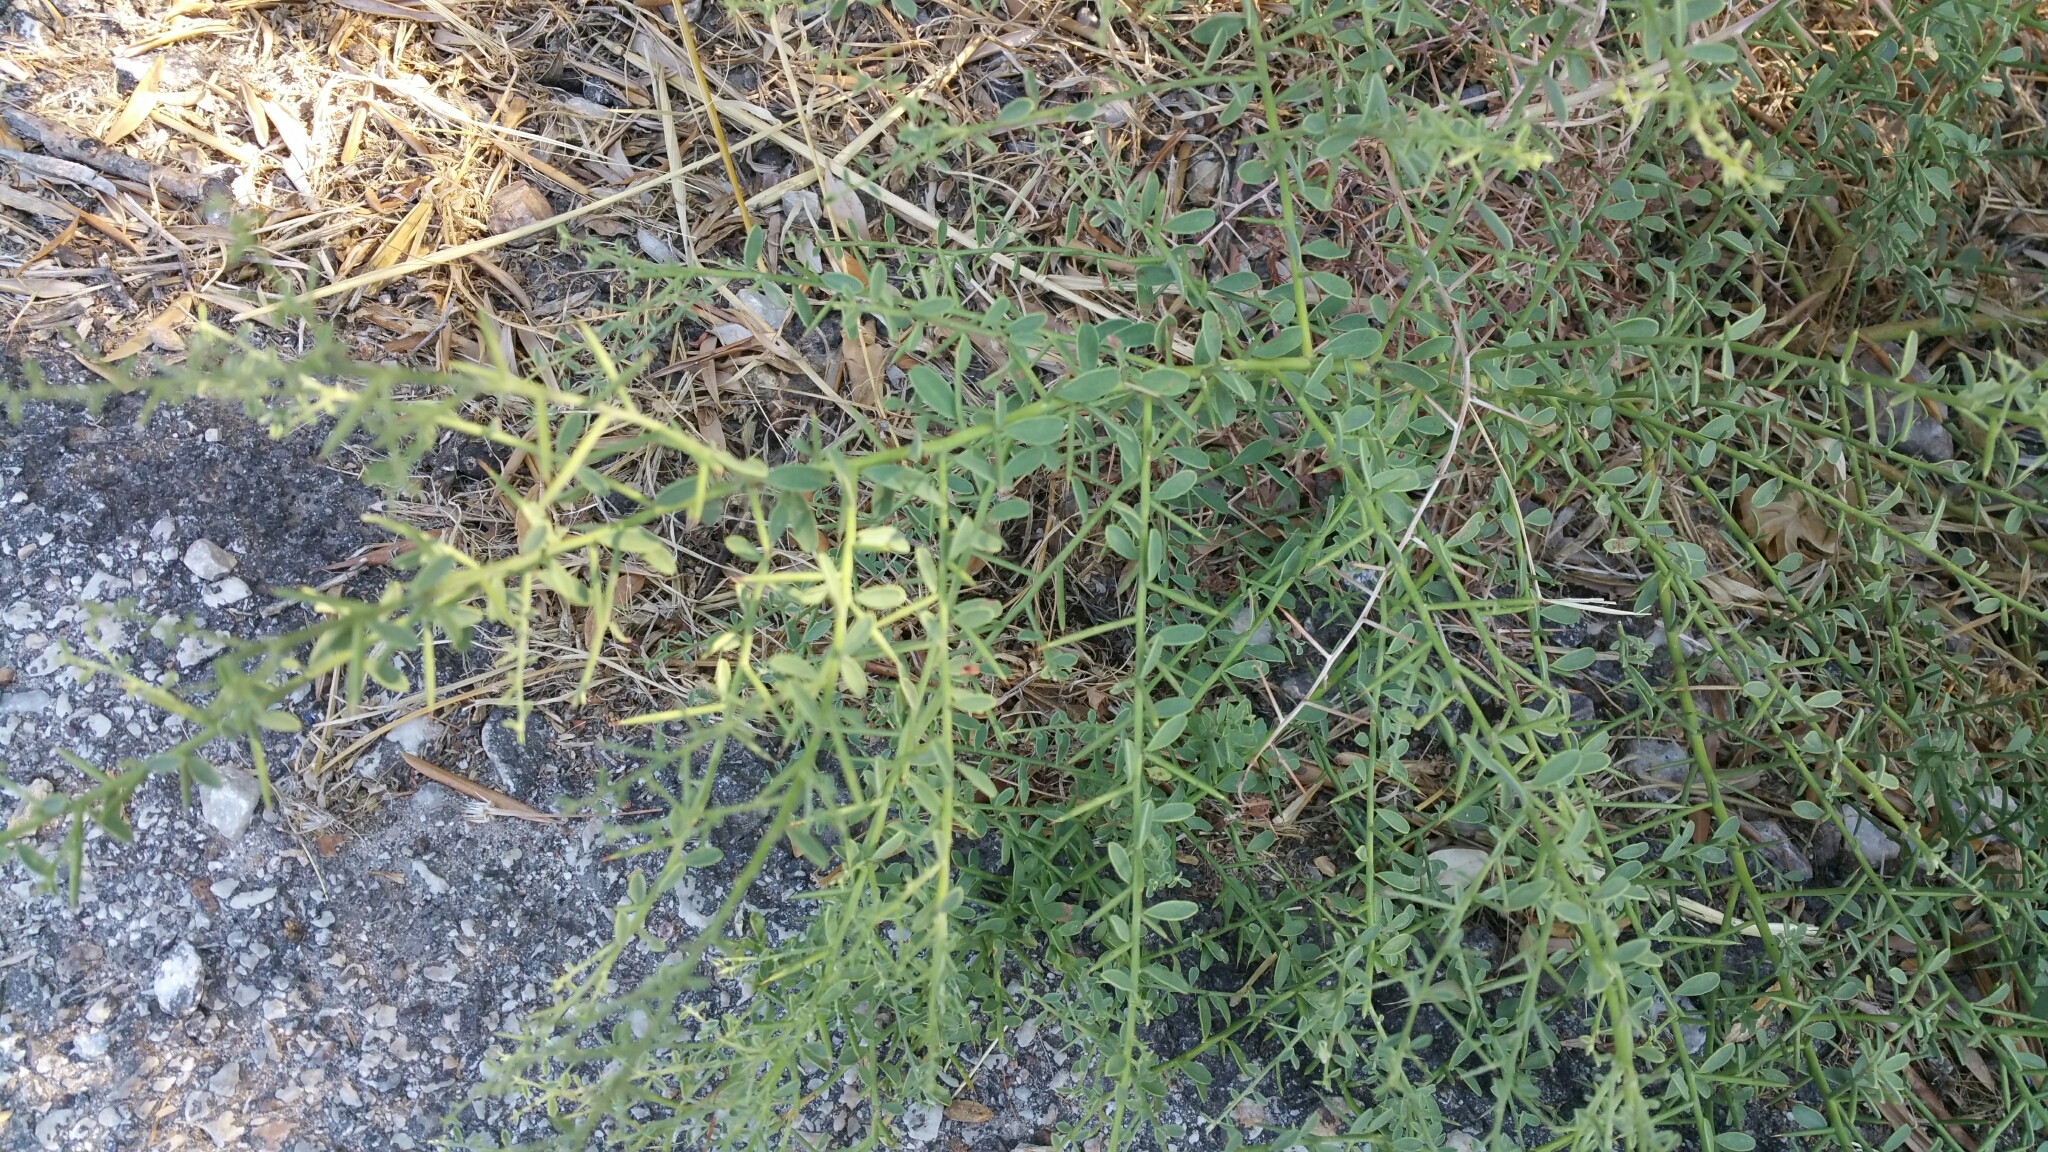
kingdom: Plantae
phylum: Tracheophyta
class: Magnoliopsida
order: Fabales
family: Fabaceae
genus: Alhagi
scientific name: Alhagi graecorum
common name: Persian mannaplant
